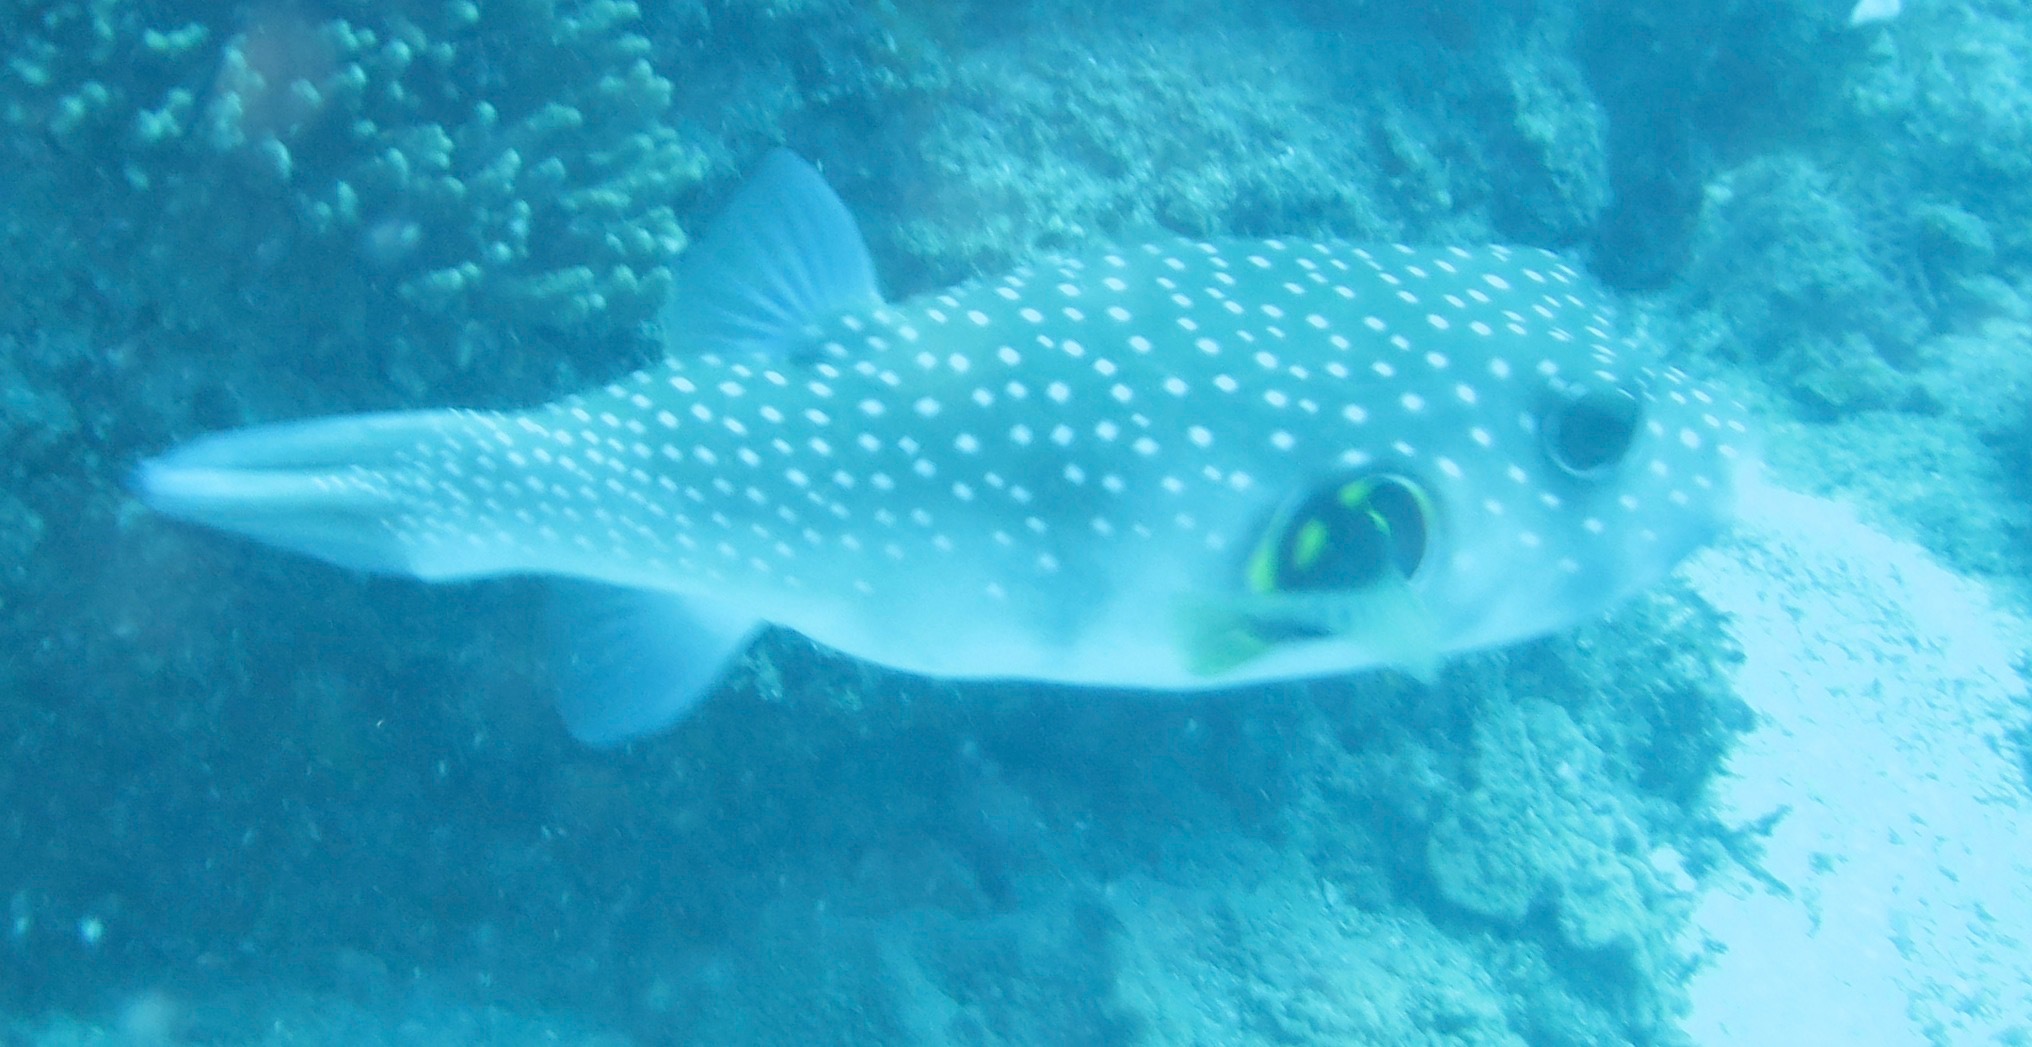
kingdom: Animalia
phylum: Chordata
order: Tetraodontiformes
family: Tetraodontidae
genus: Arothron
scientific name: Arothron hispidus
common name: Stripebelly puffer
